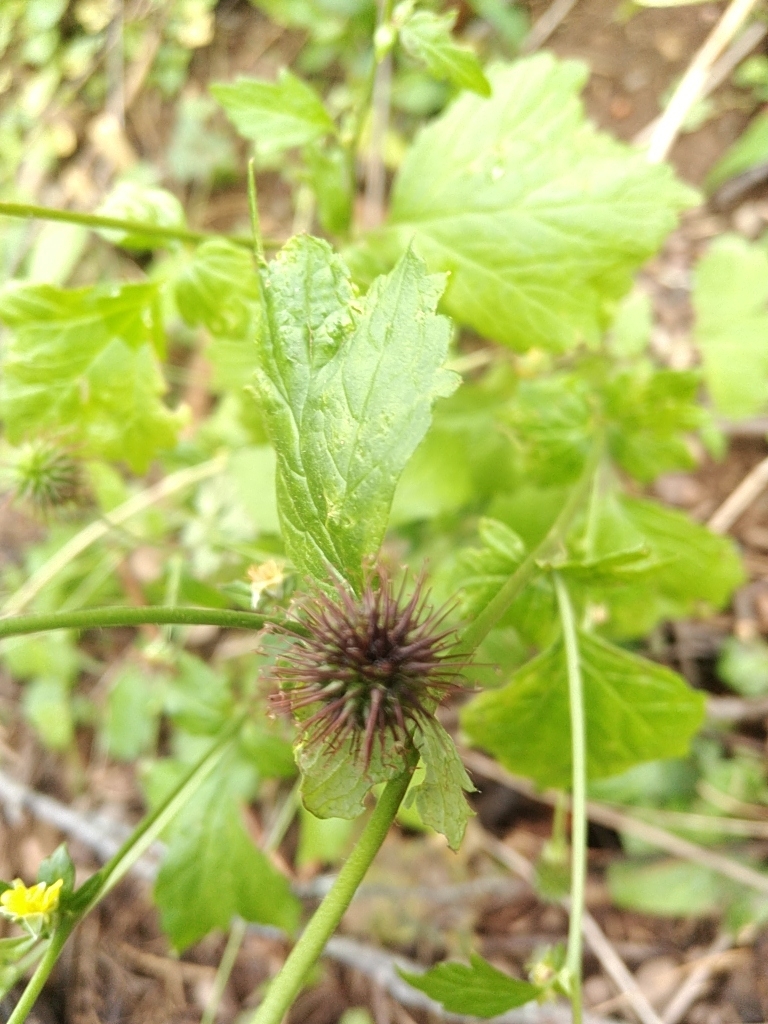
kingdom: Plantae
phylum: Tracheophyta
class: Magnoliopsida
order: Rosales
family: Rosaceae
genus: Geum
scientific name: Geum urbanum
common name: Wood avens
